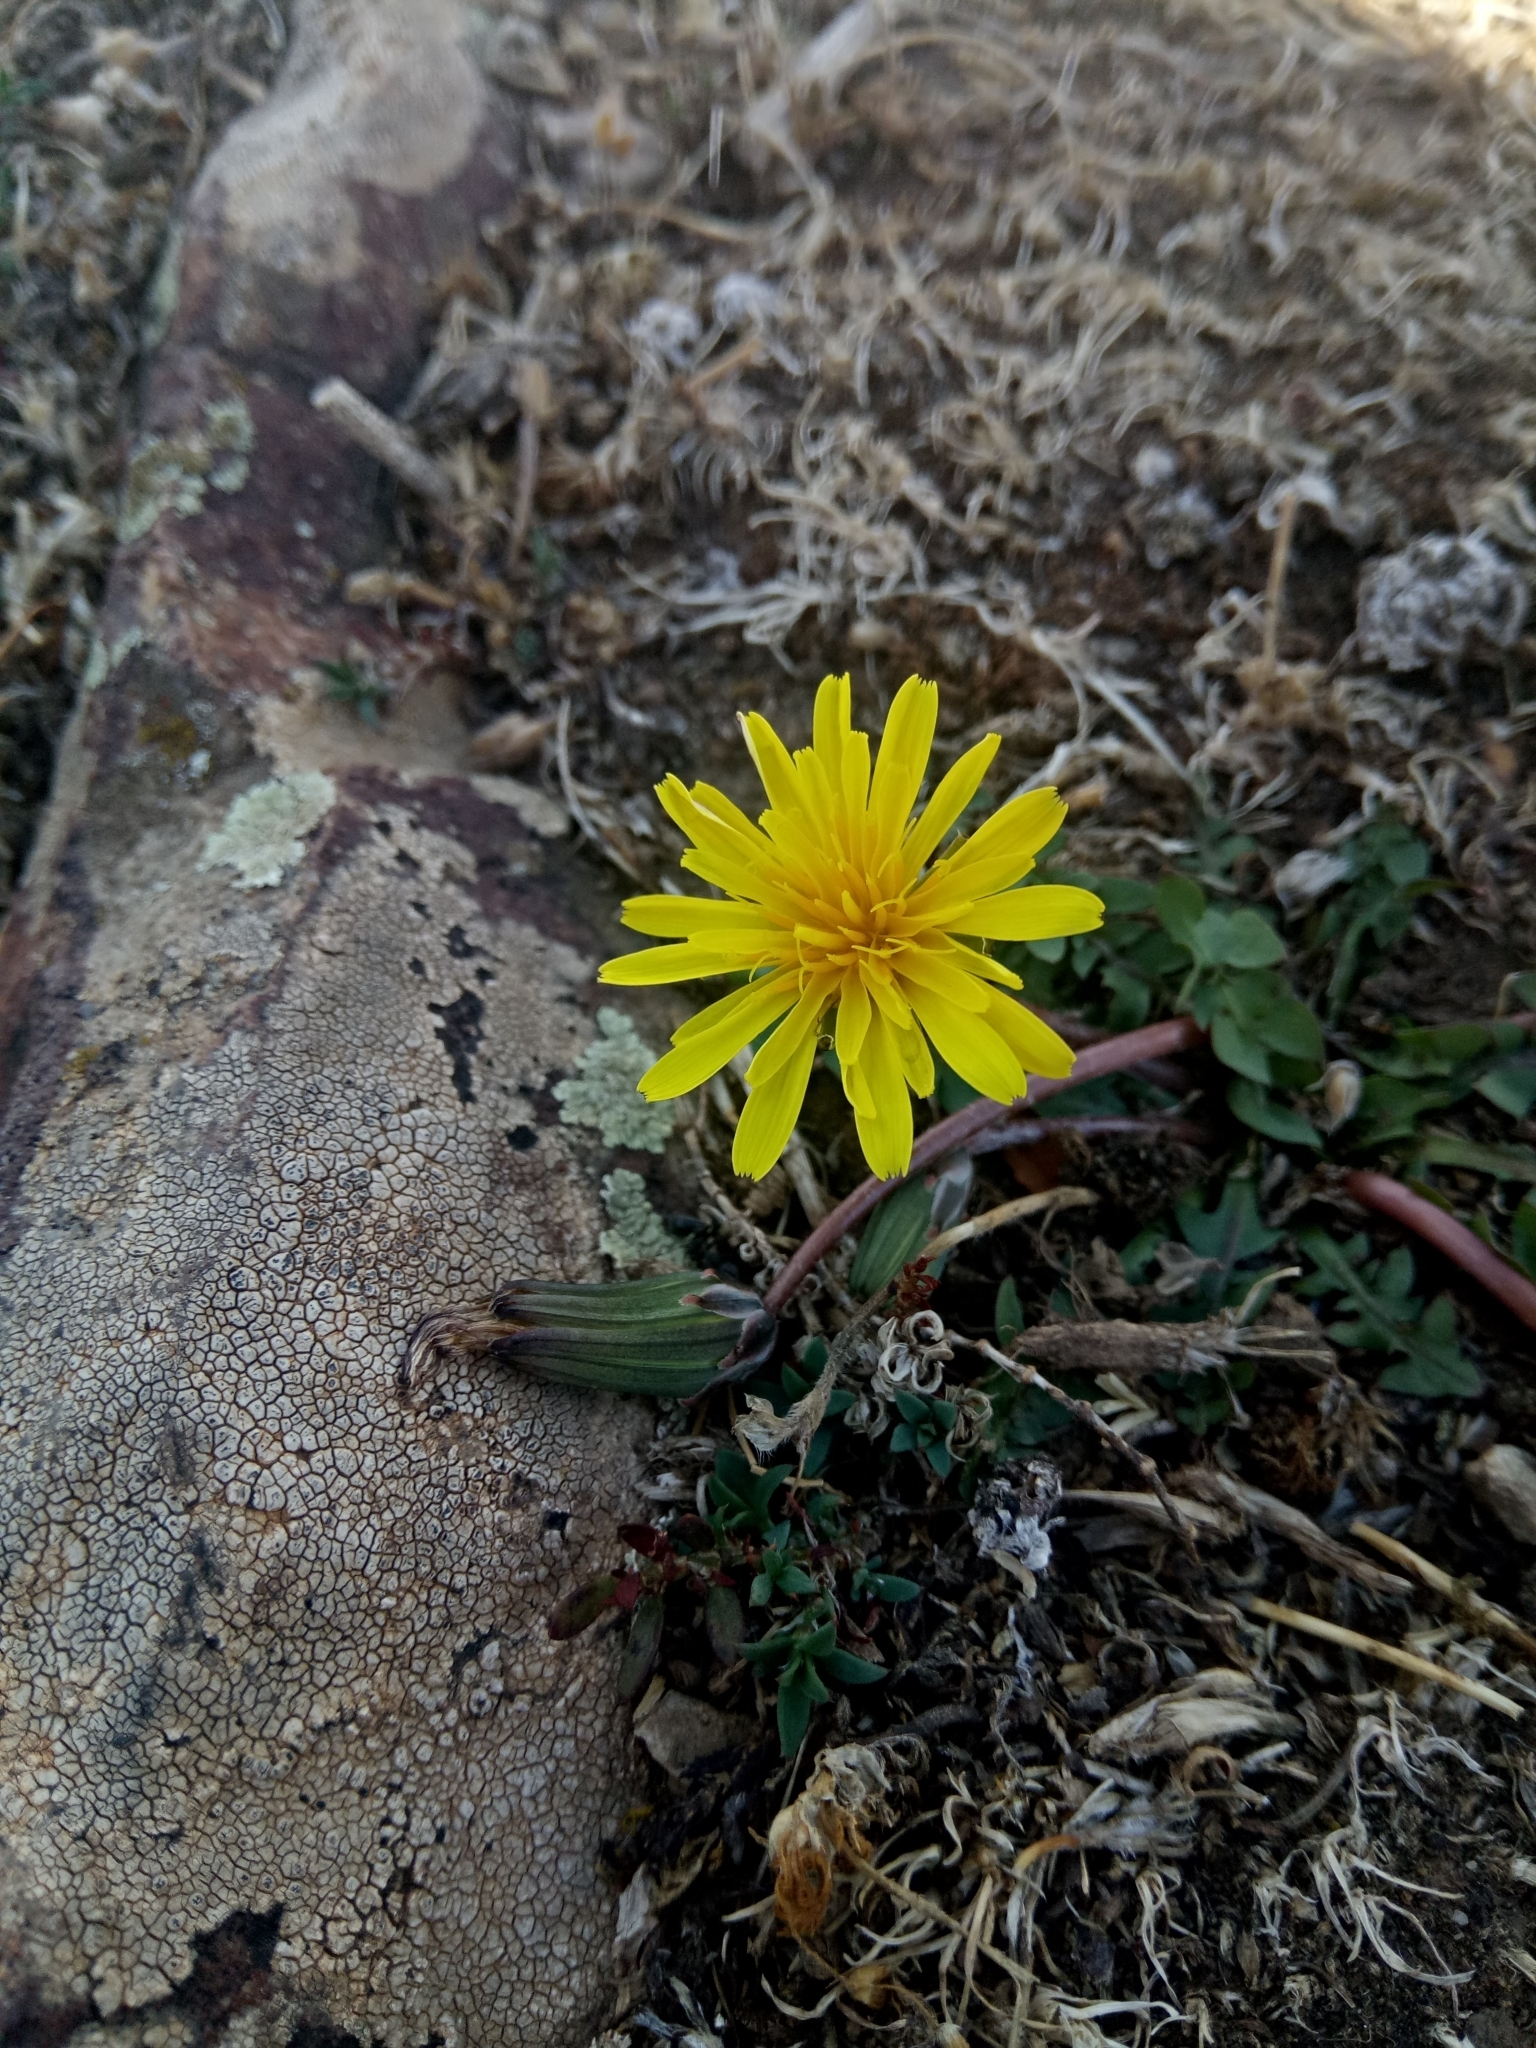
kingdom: Plantae
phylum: Tracheophyta
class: Magnoliopsida
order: Asterales
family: Asteraceae
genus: Taraxacum
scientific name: Taraxacum inaequilobum
